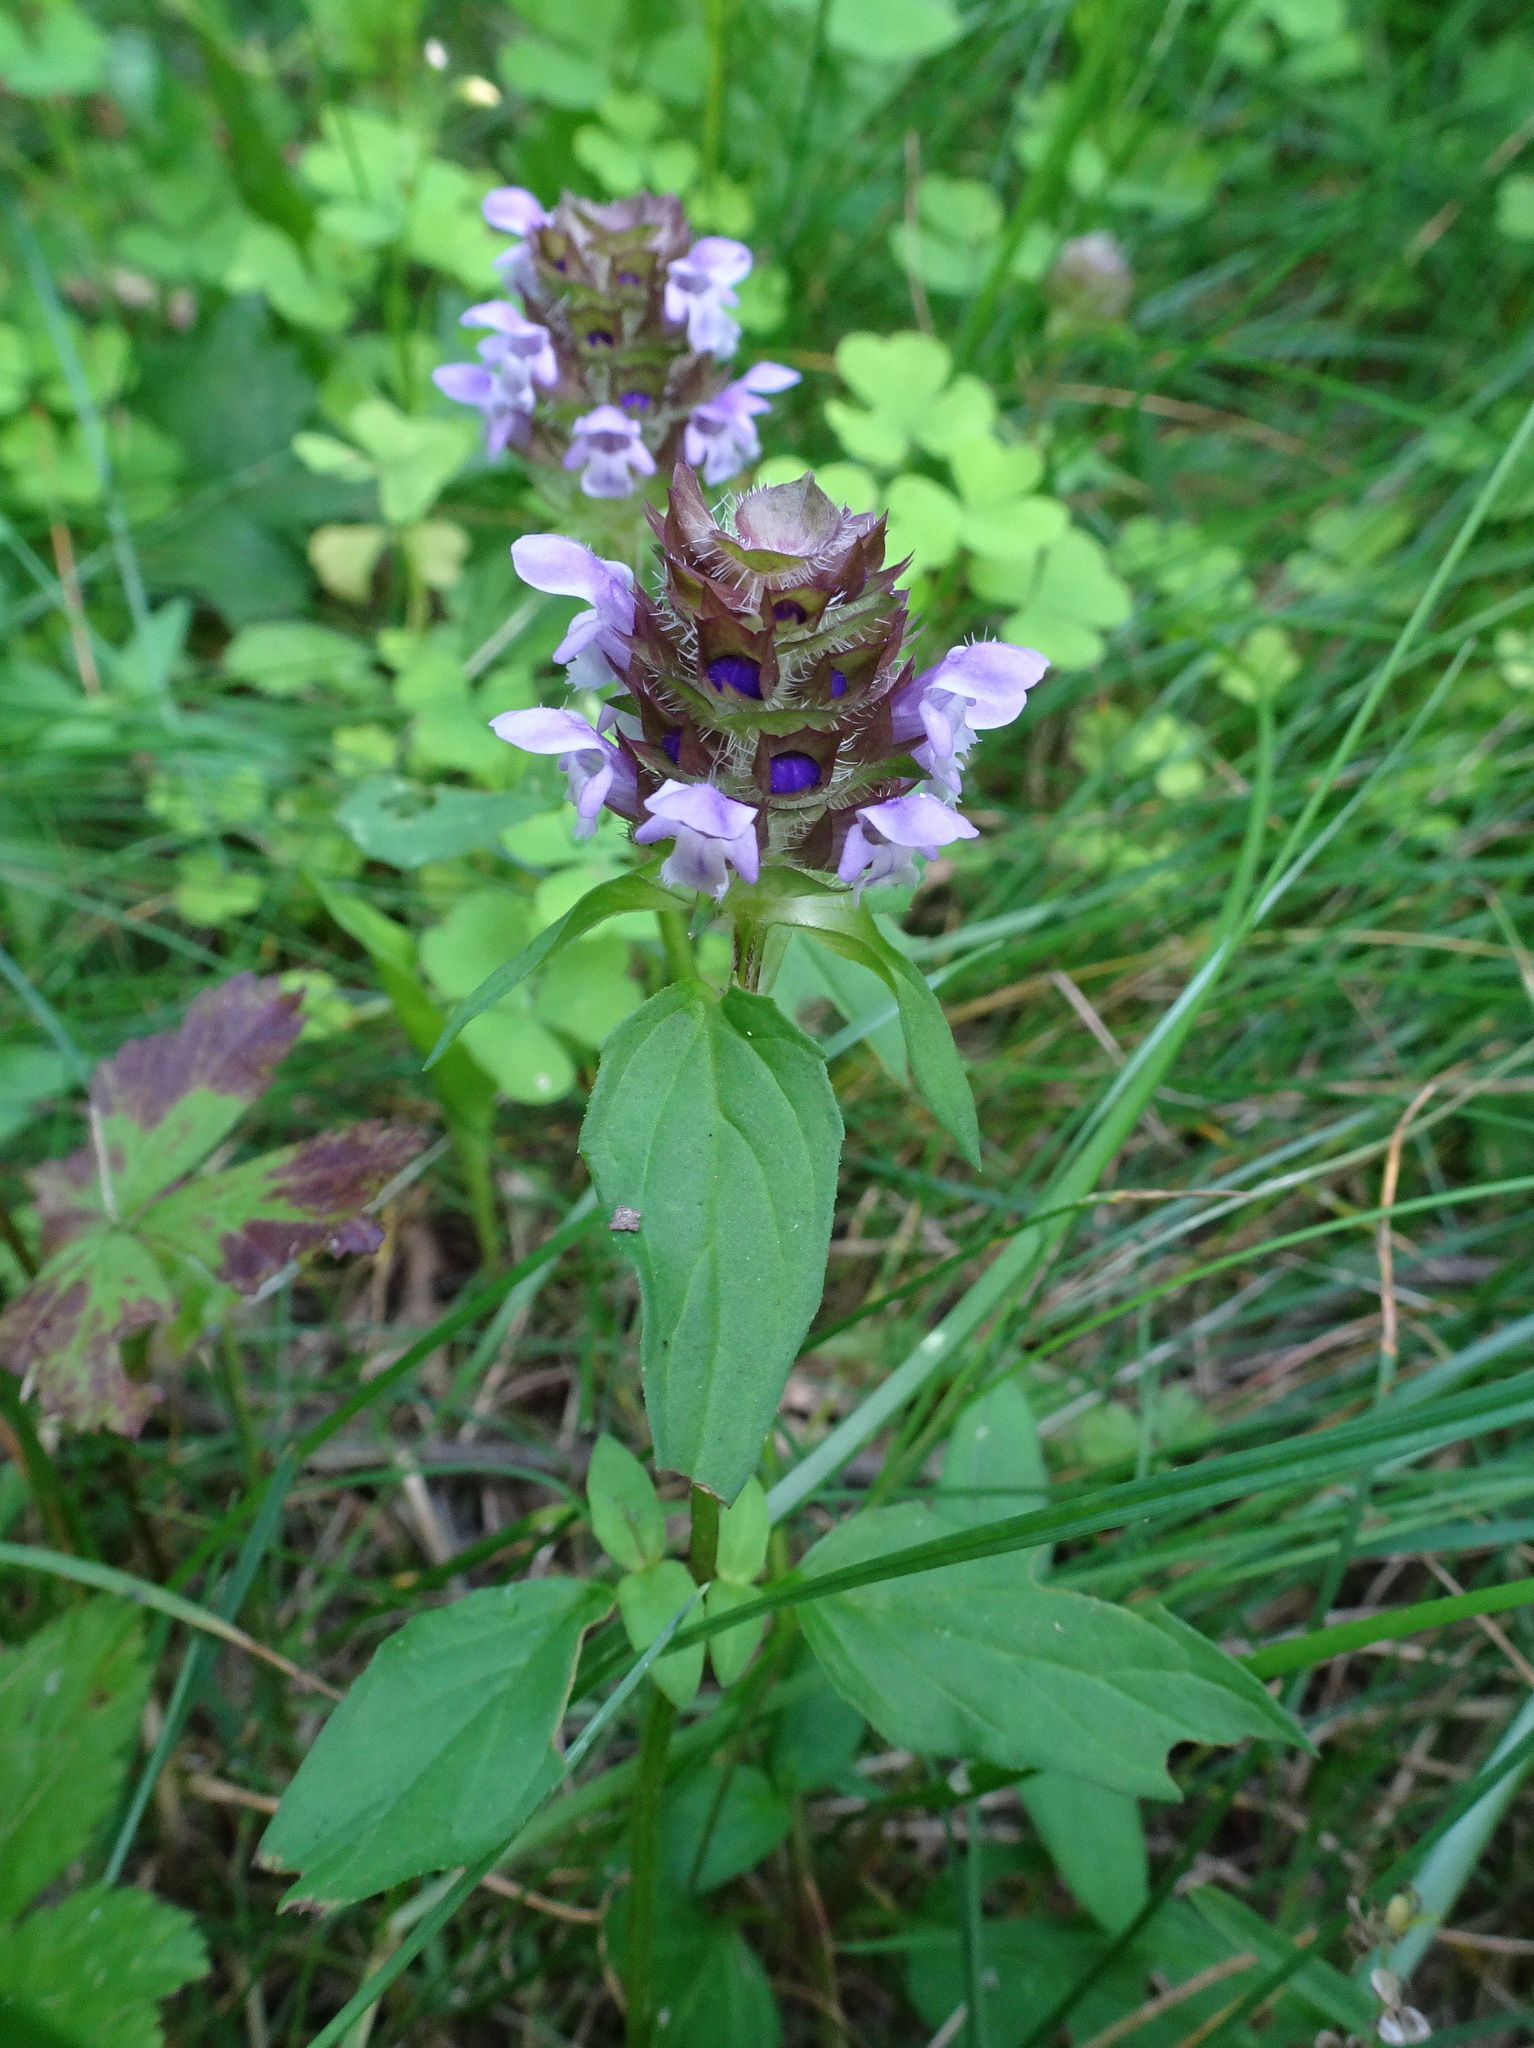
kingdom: Plantae
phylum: Tracheophyta
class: Magnoliopsida
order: Lamiales
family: Lamiaceae
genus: Prunella
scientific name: Prunella vulgaris
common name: Heal-all
